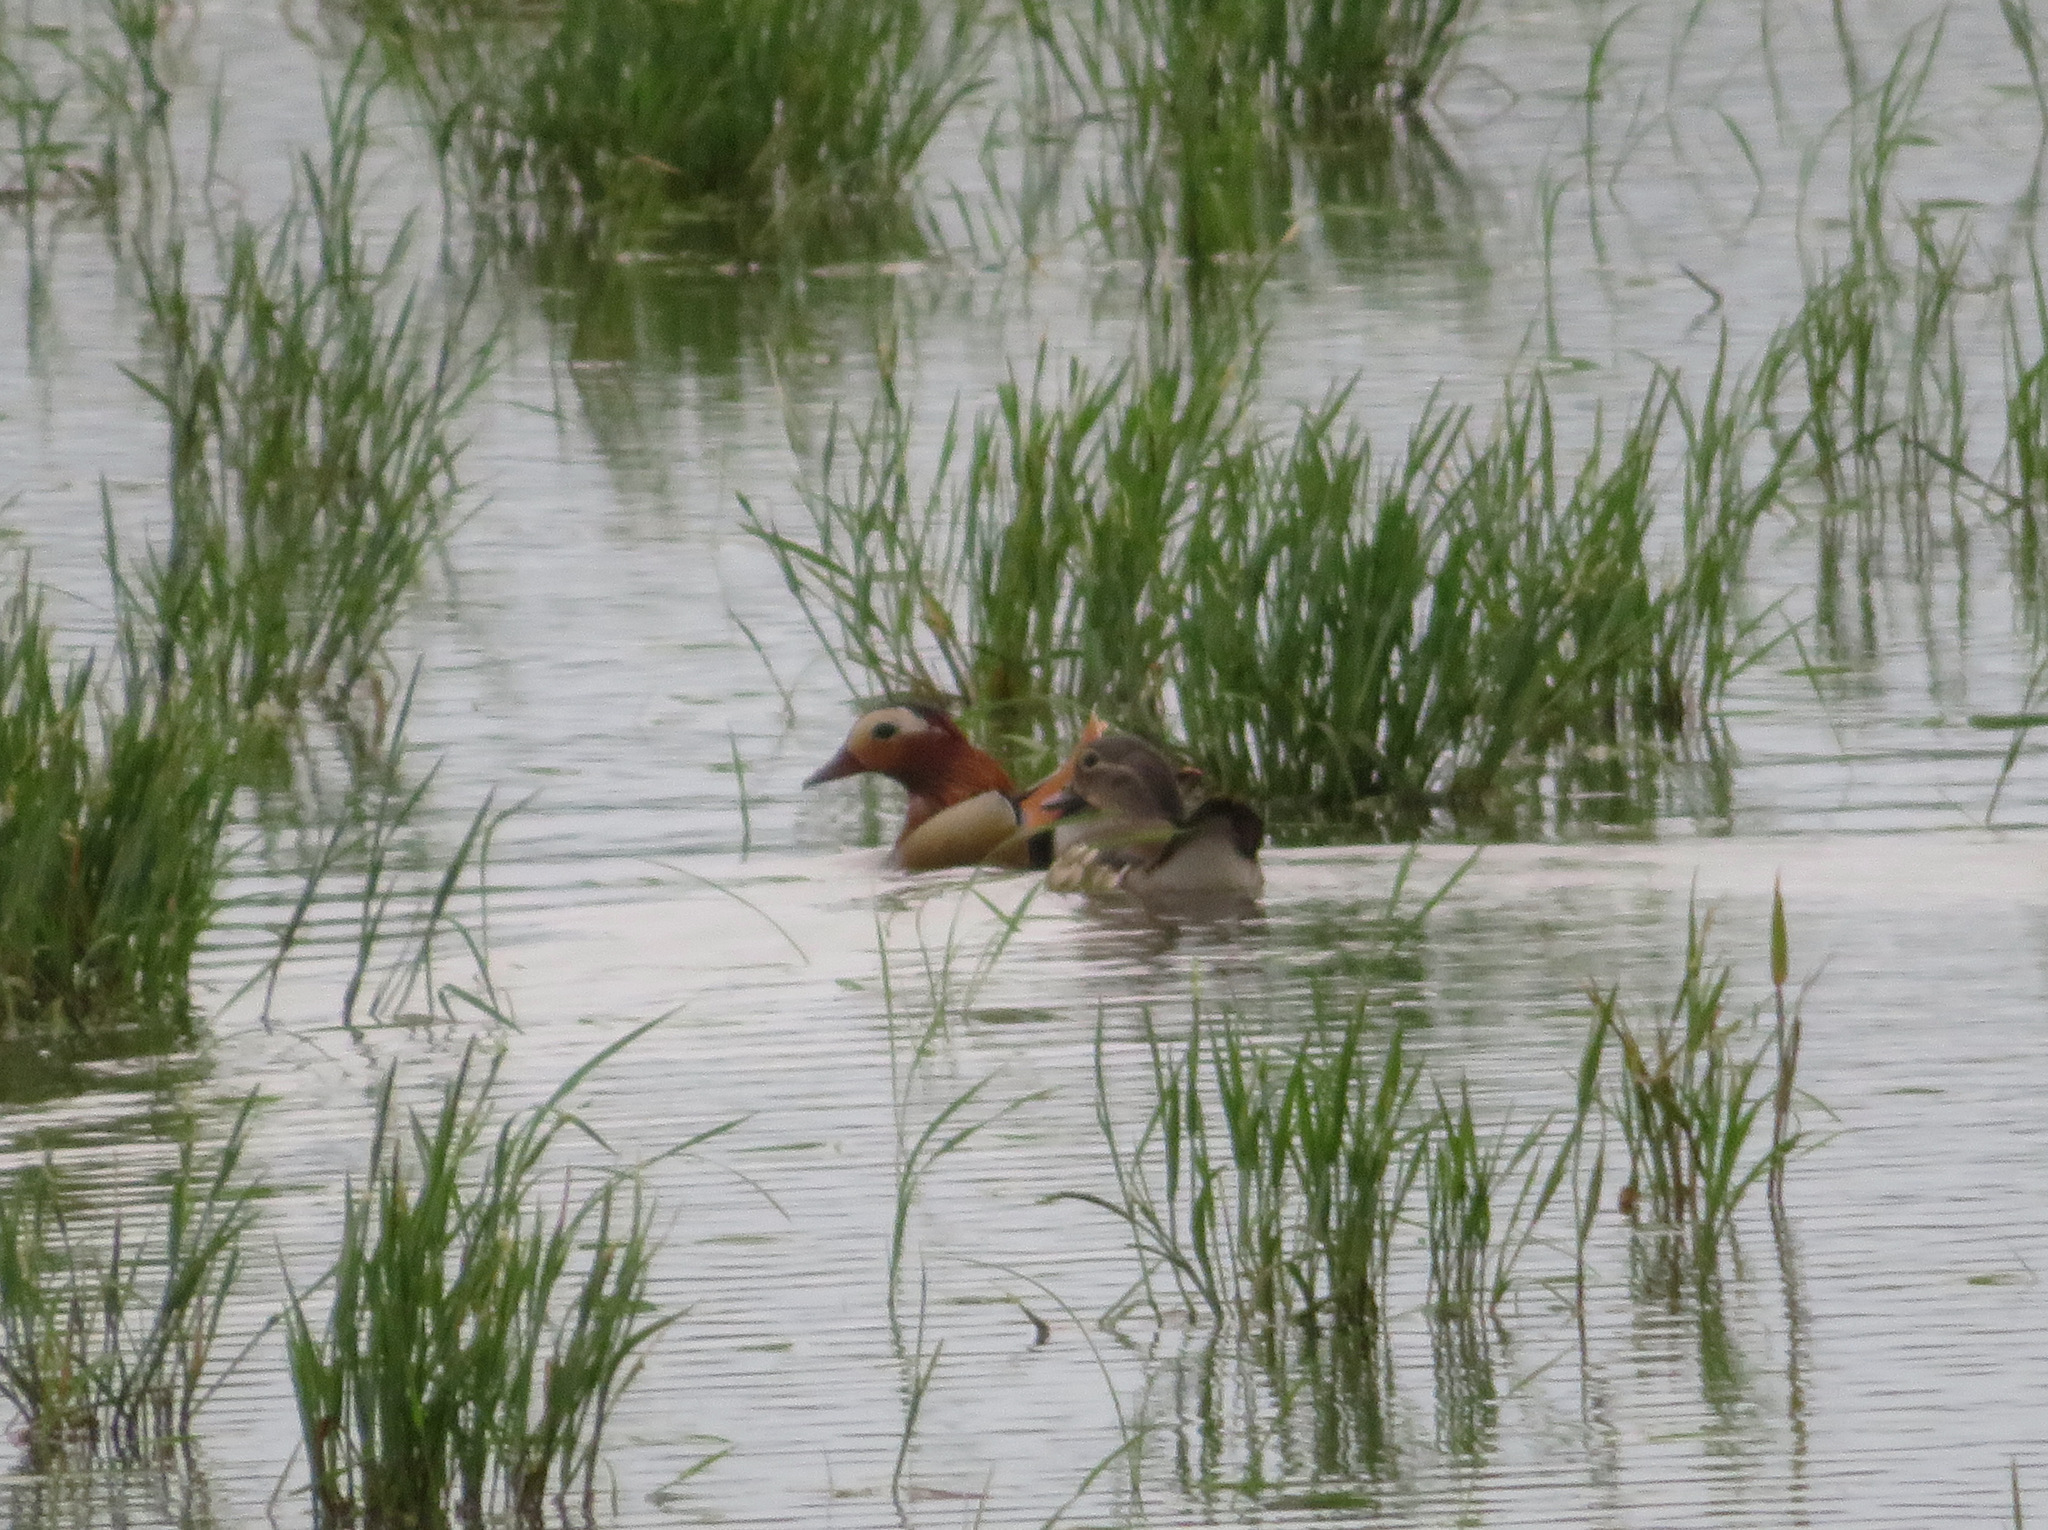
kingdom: Animalia
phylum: Chordata
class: Aves
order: Anseriformes
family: Anatidae
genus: Aix
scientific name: Aix galericulata
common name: Mandarin duck
